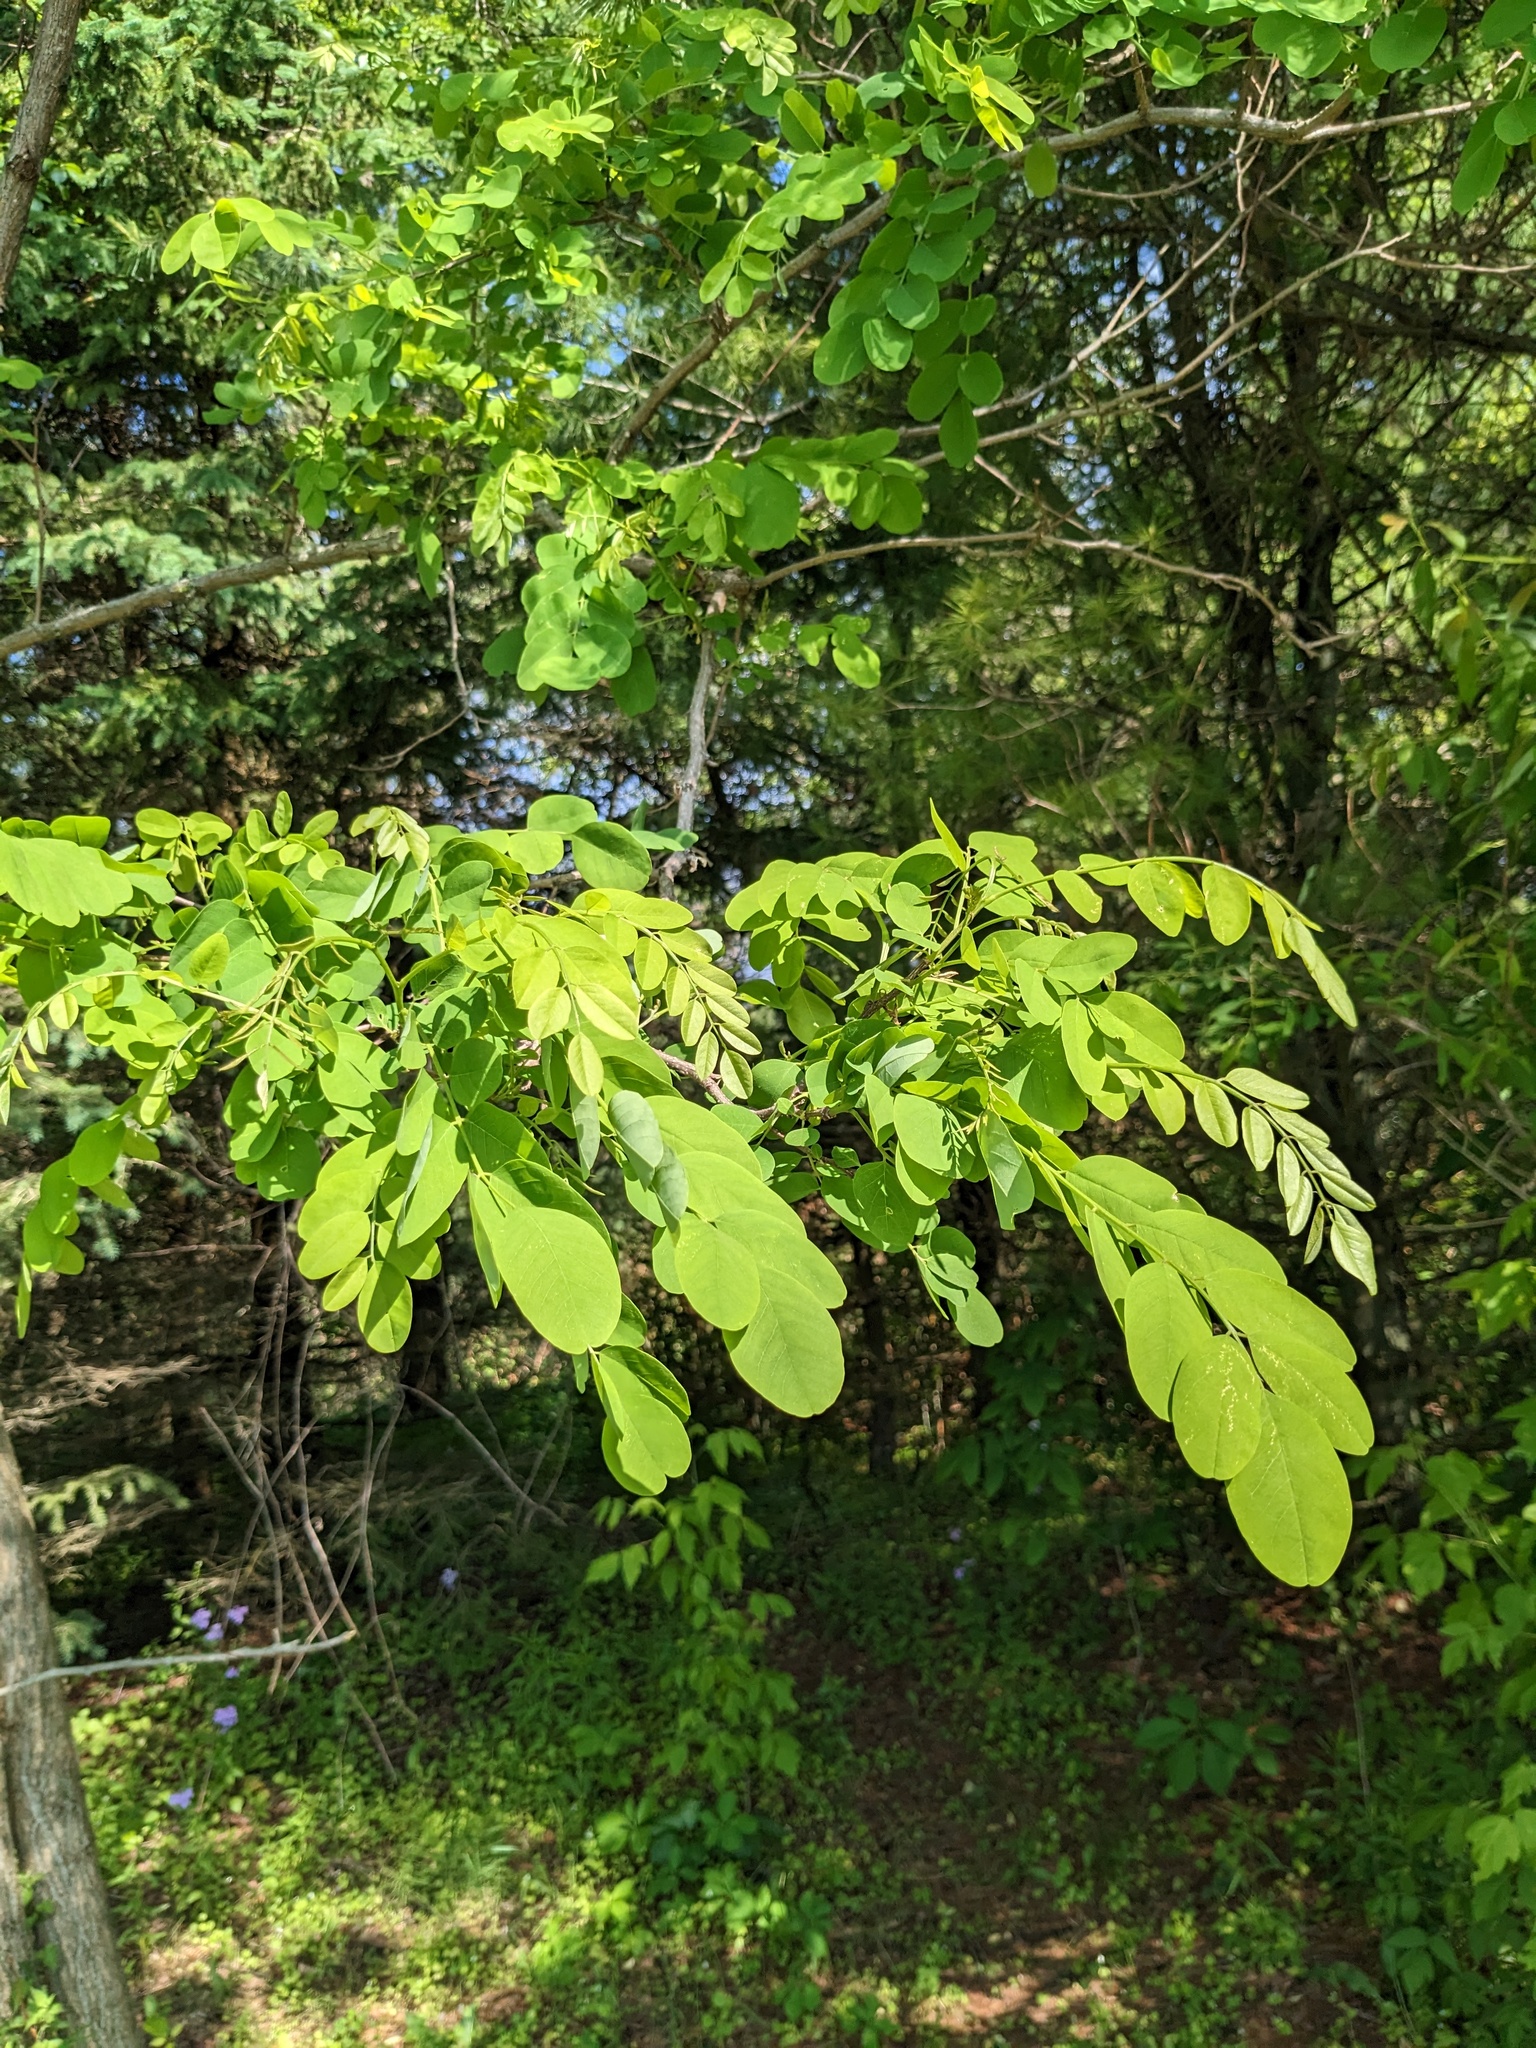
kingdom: Plantae
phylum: Tracheophyta
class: Magnoliopsida
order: Fabales
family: Fabaceae
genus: Robinia
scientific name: Robinia pseudoacacia
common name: Black locust
